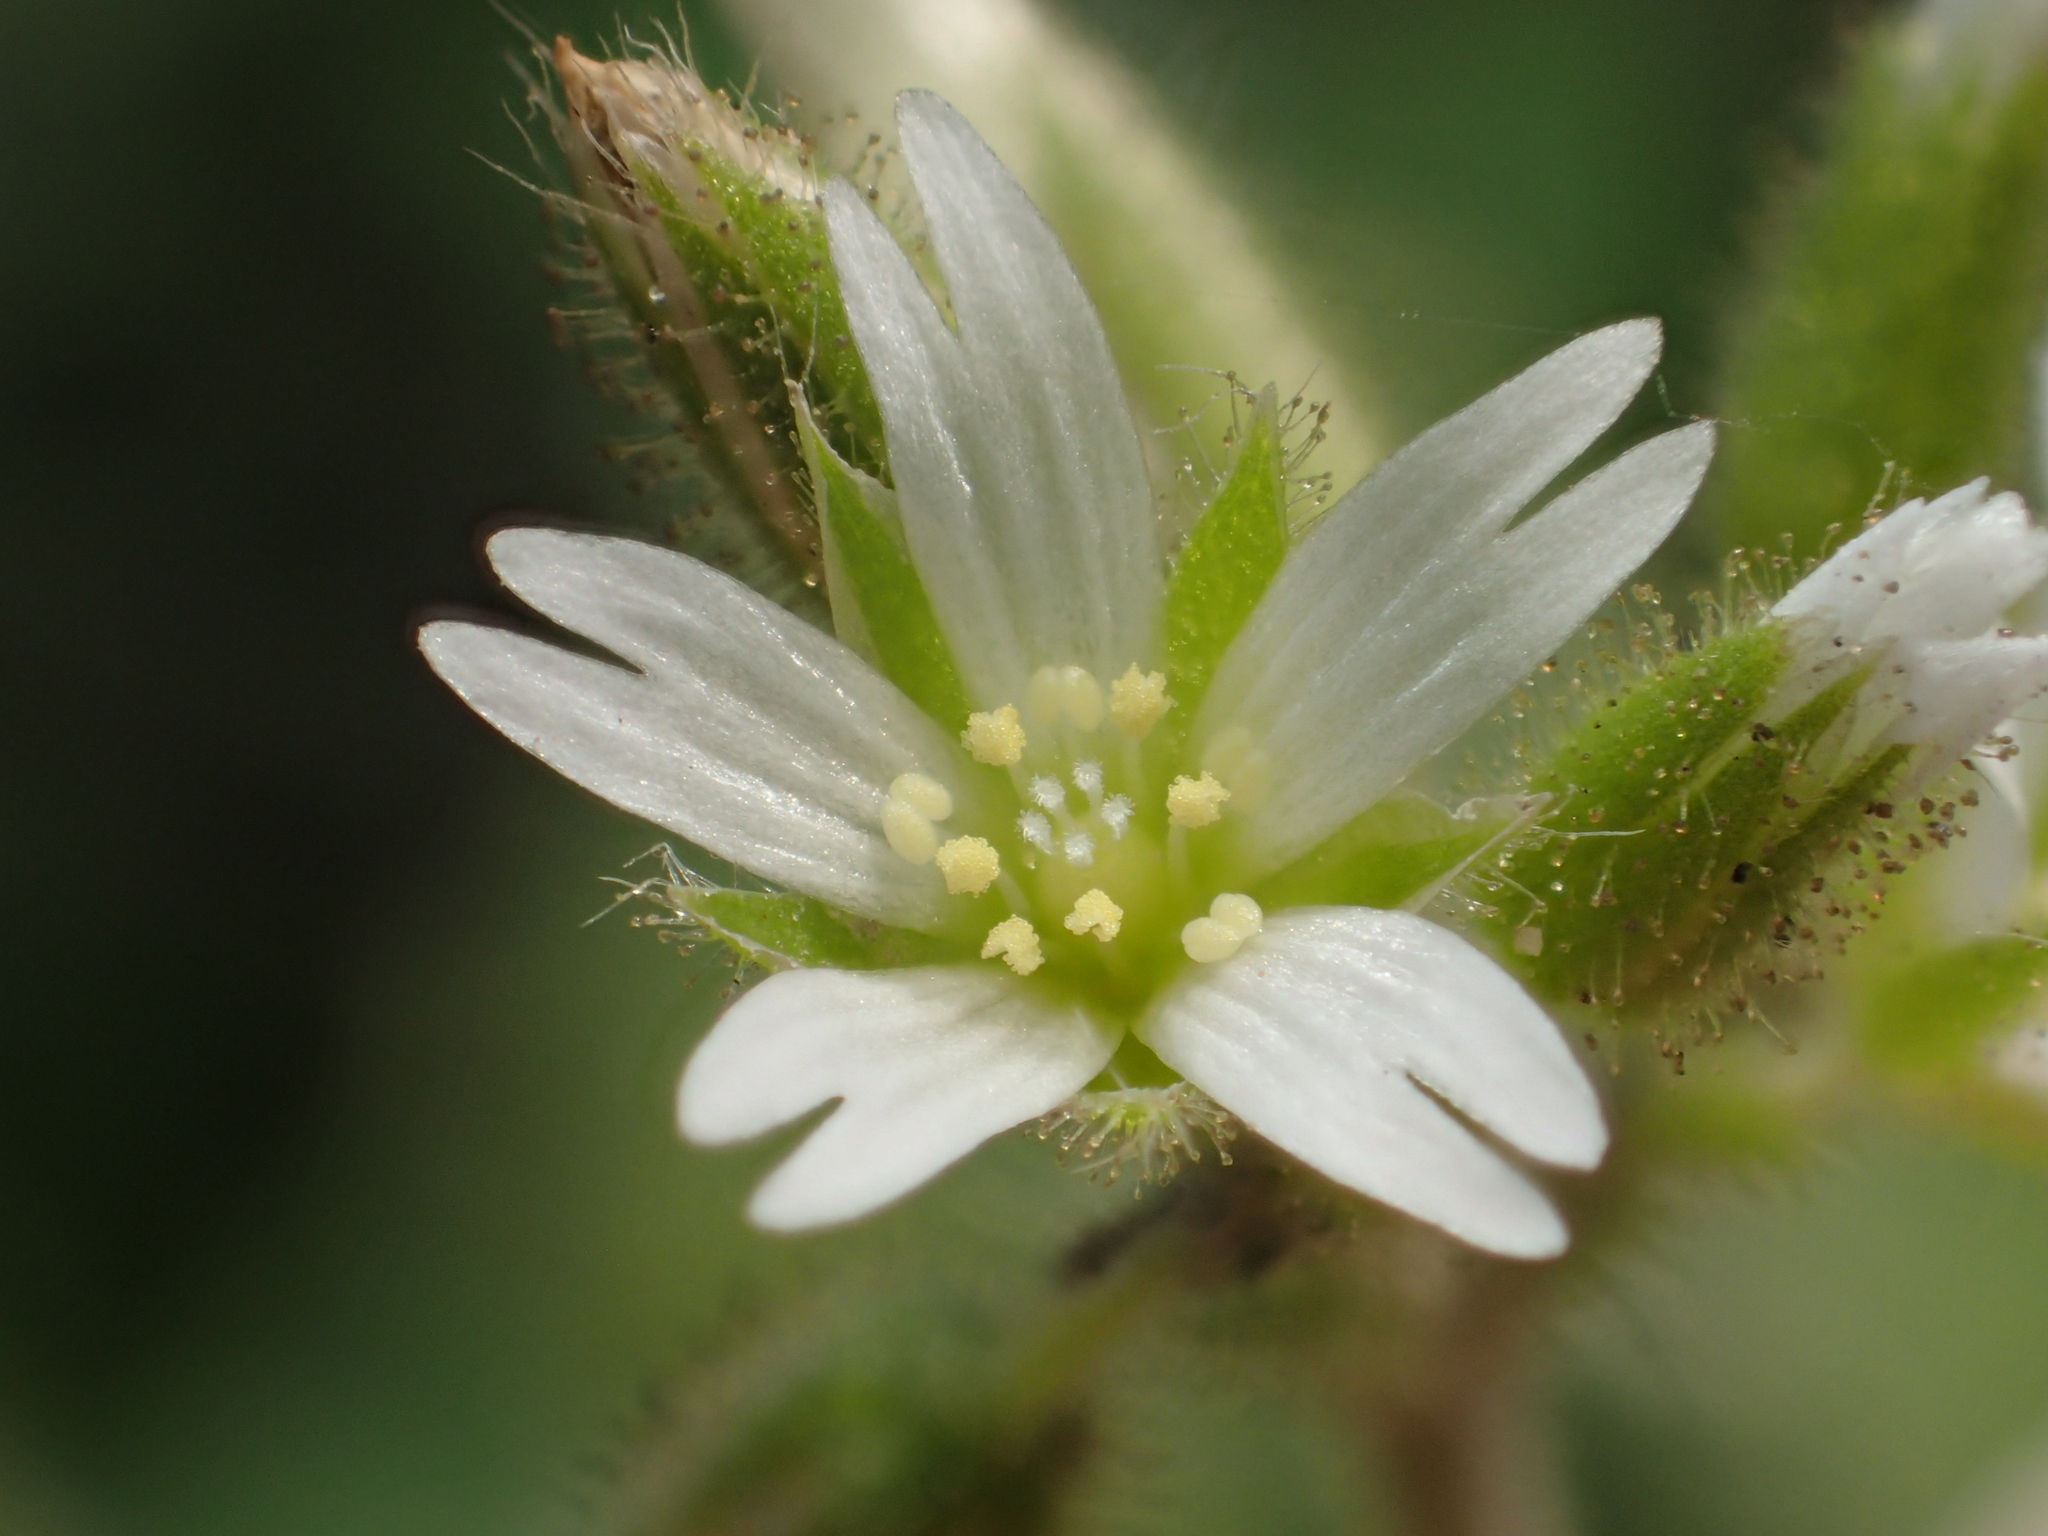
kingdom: Plantae
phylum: Tracheophyta
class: Magnoliopsida
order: Caryophyllales
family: Caryophyllaceae
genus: Cerastium
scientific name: Cerastium glomeratum
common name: Sticky chickweed
